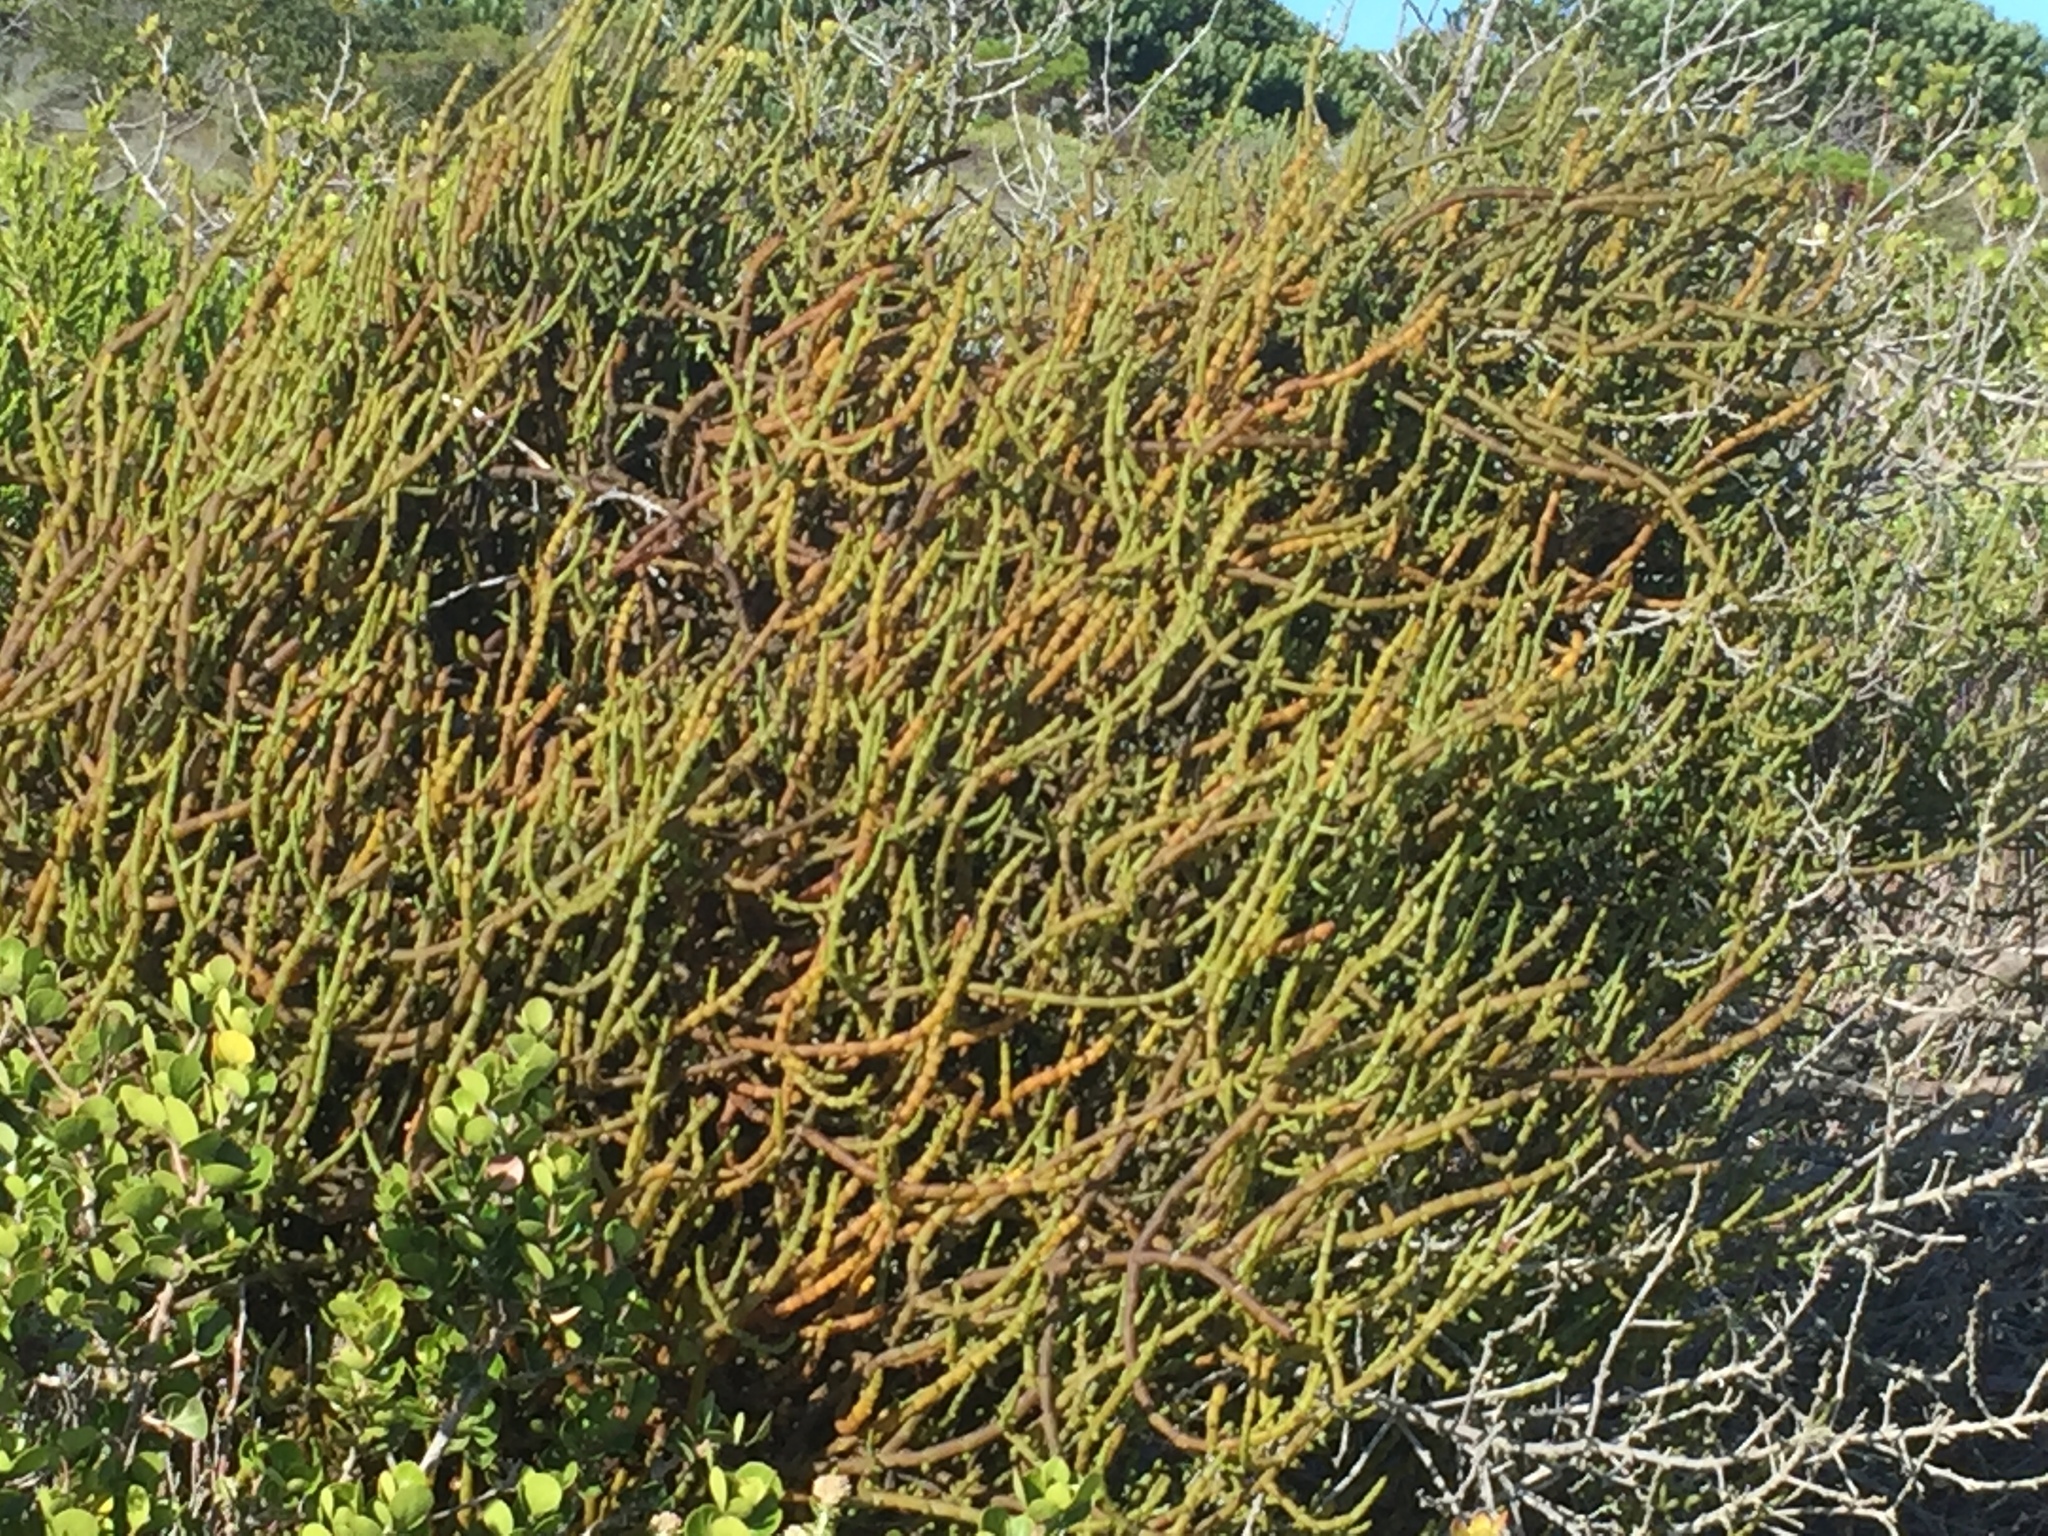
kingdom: Plantae
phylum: Tracheophyta
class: Magnoliopsida
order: Santalales
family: Viscaceae
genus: Viscum
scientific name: Viscum capense
